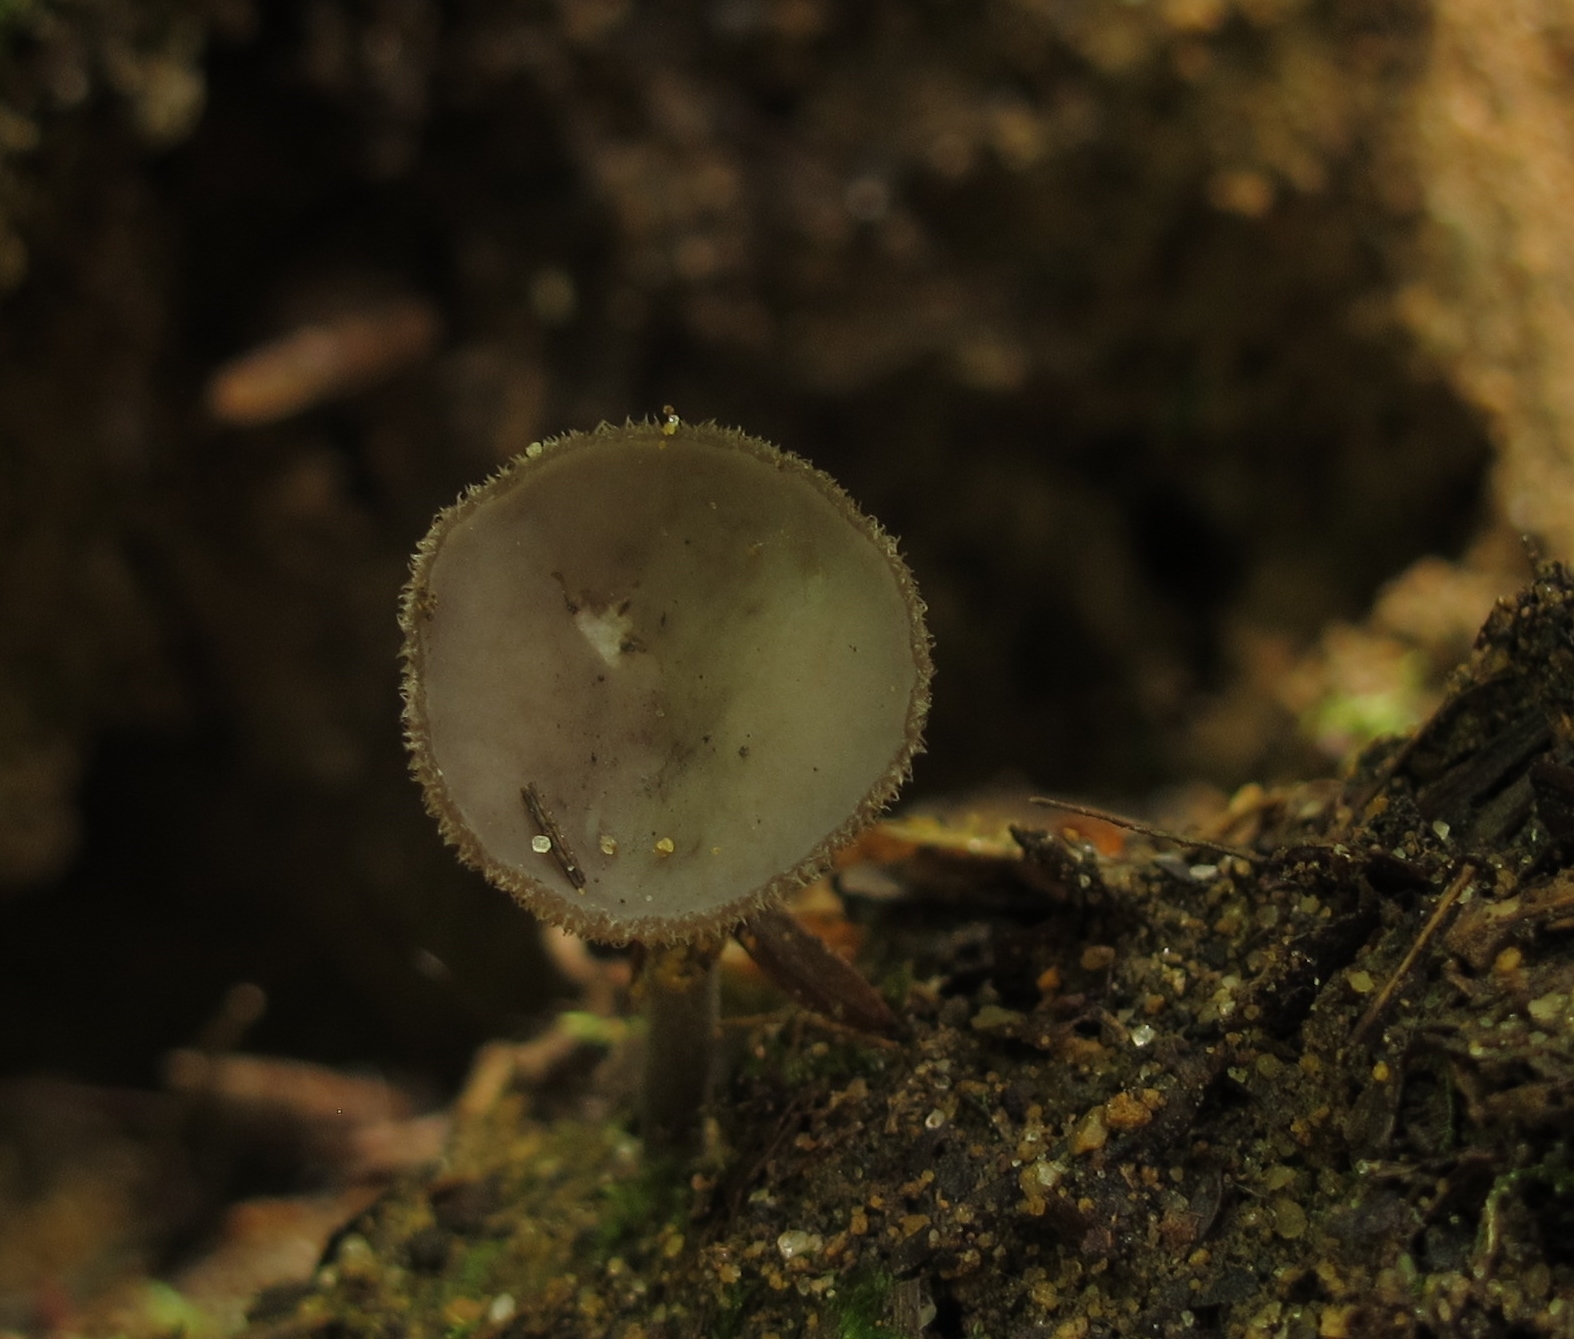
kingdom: Fungi
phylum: Ascomycota
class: Pezizomycetes
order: Pezizales
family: Helvellaceae
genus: Helvella
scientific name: Helvella macropus
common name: Felt saddle
